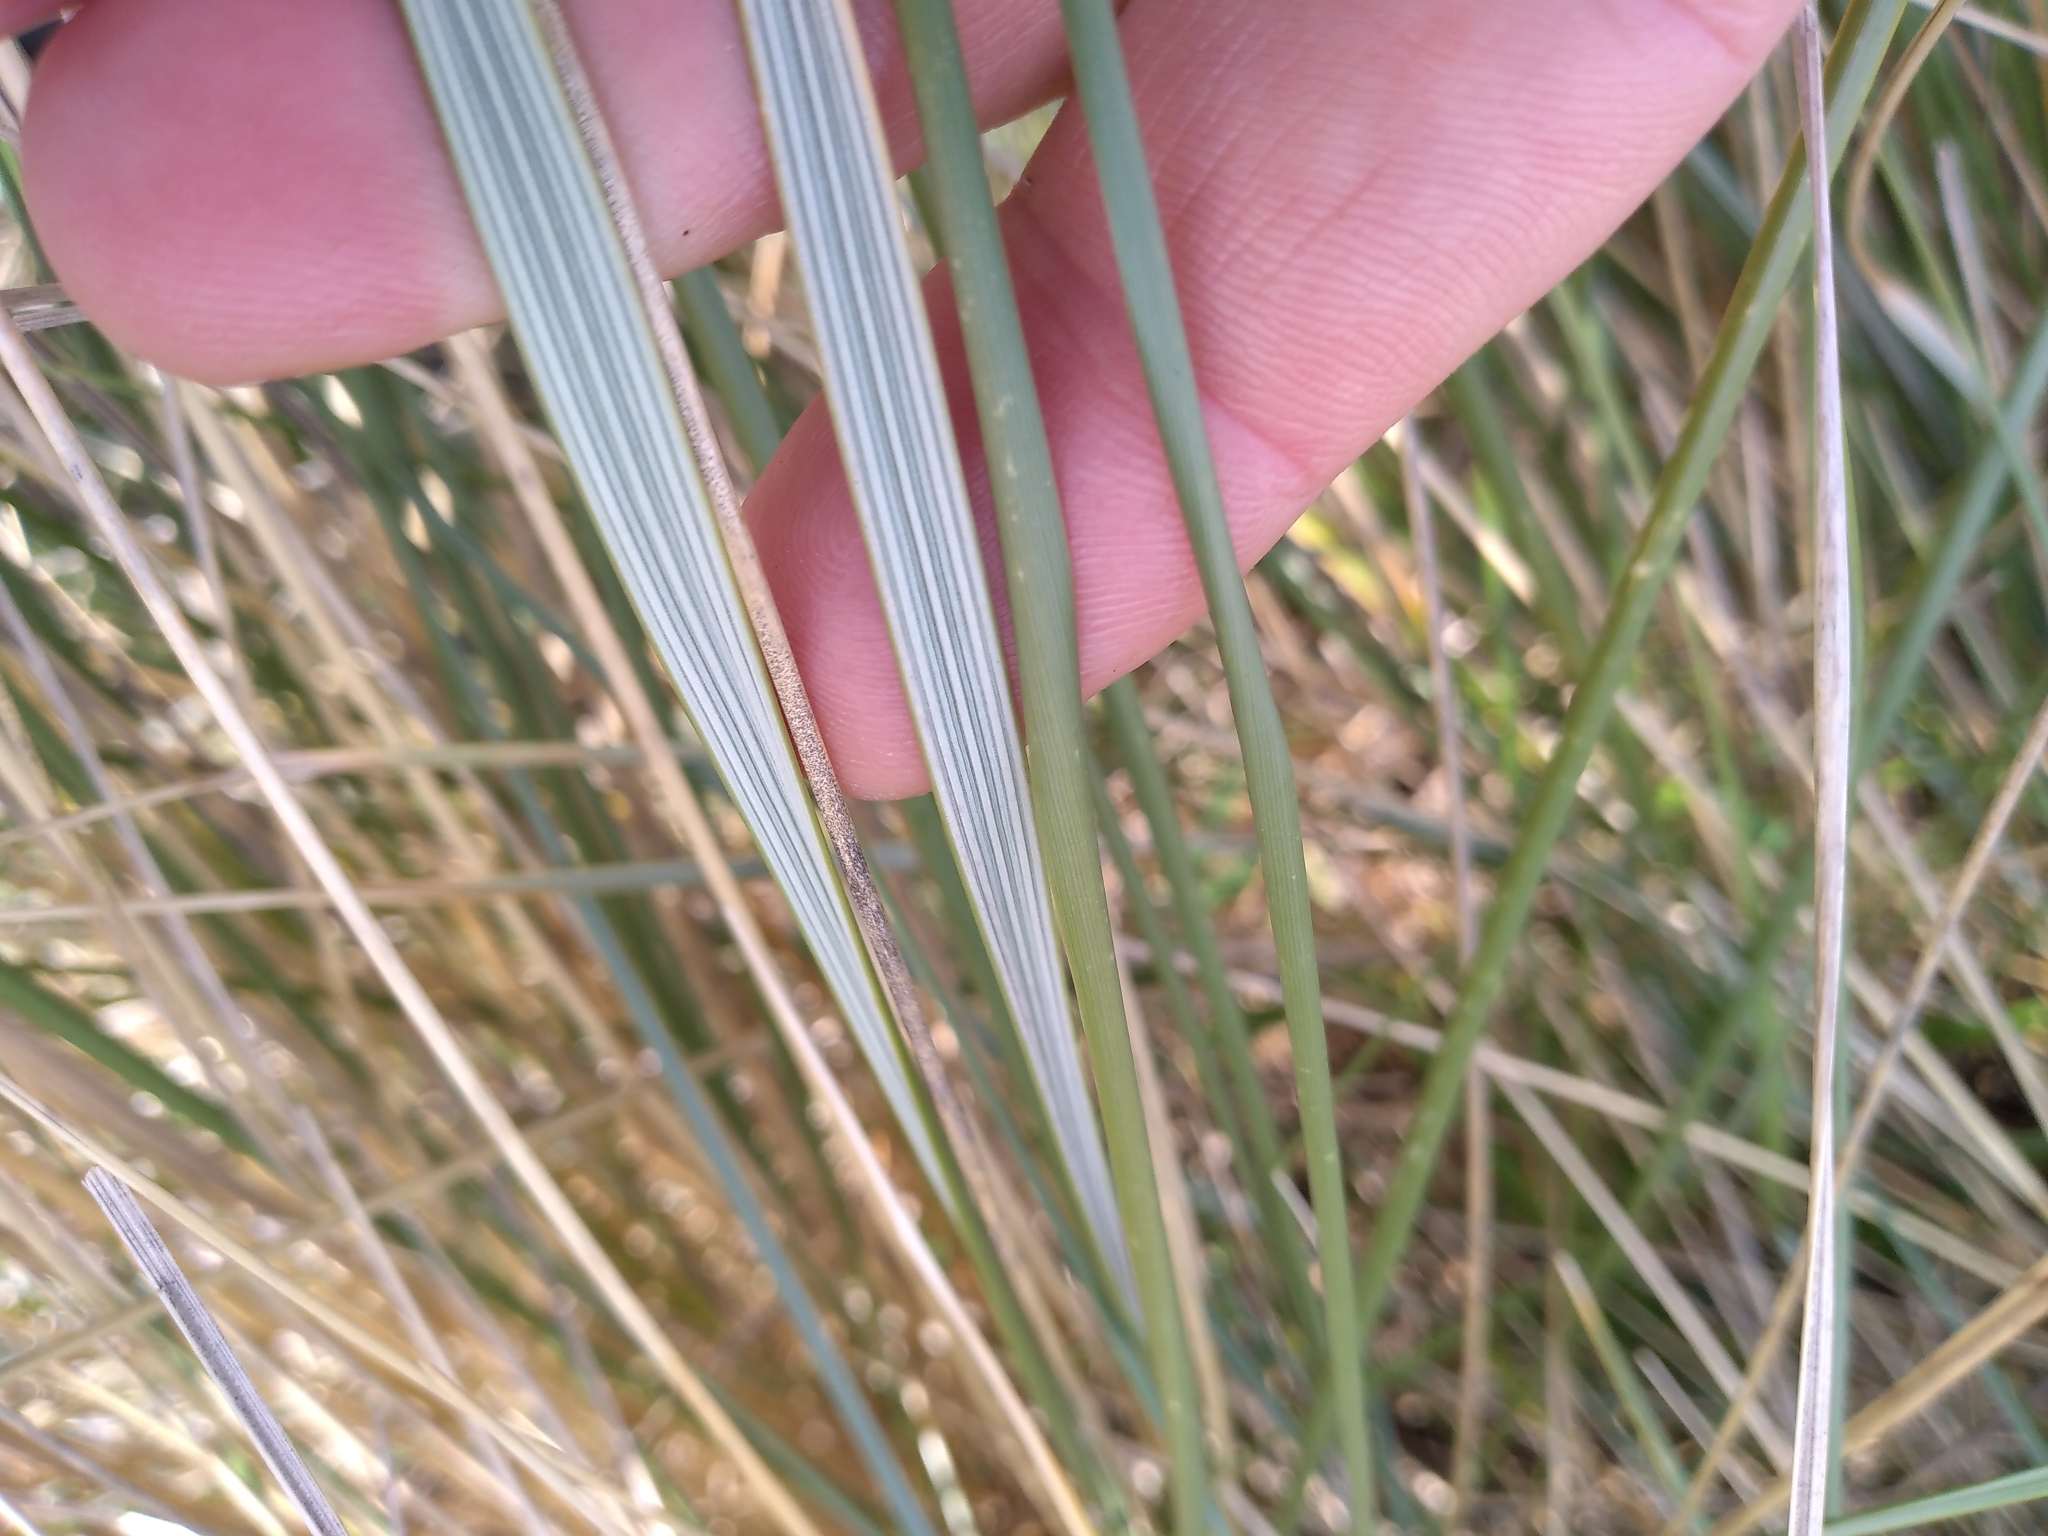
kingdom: Plantae
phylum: Tracheophyta
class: Liliopsida
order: Poales
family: Poaceae
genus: Calamagrostis
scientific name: Calamagrostis arenaria
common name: European beachgrass
